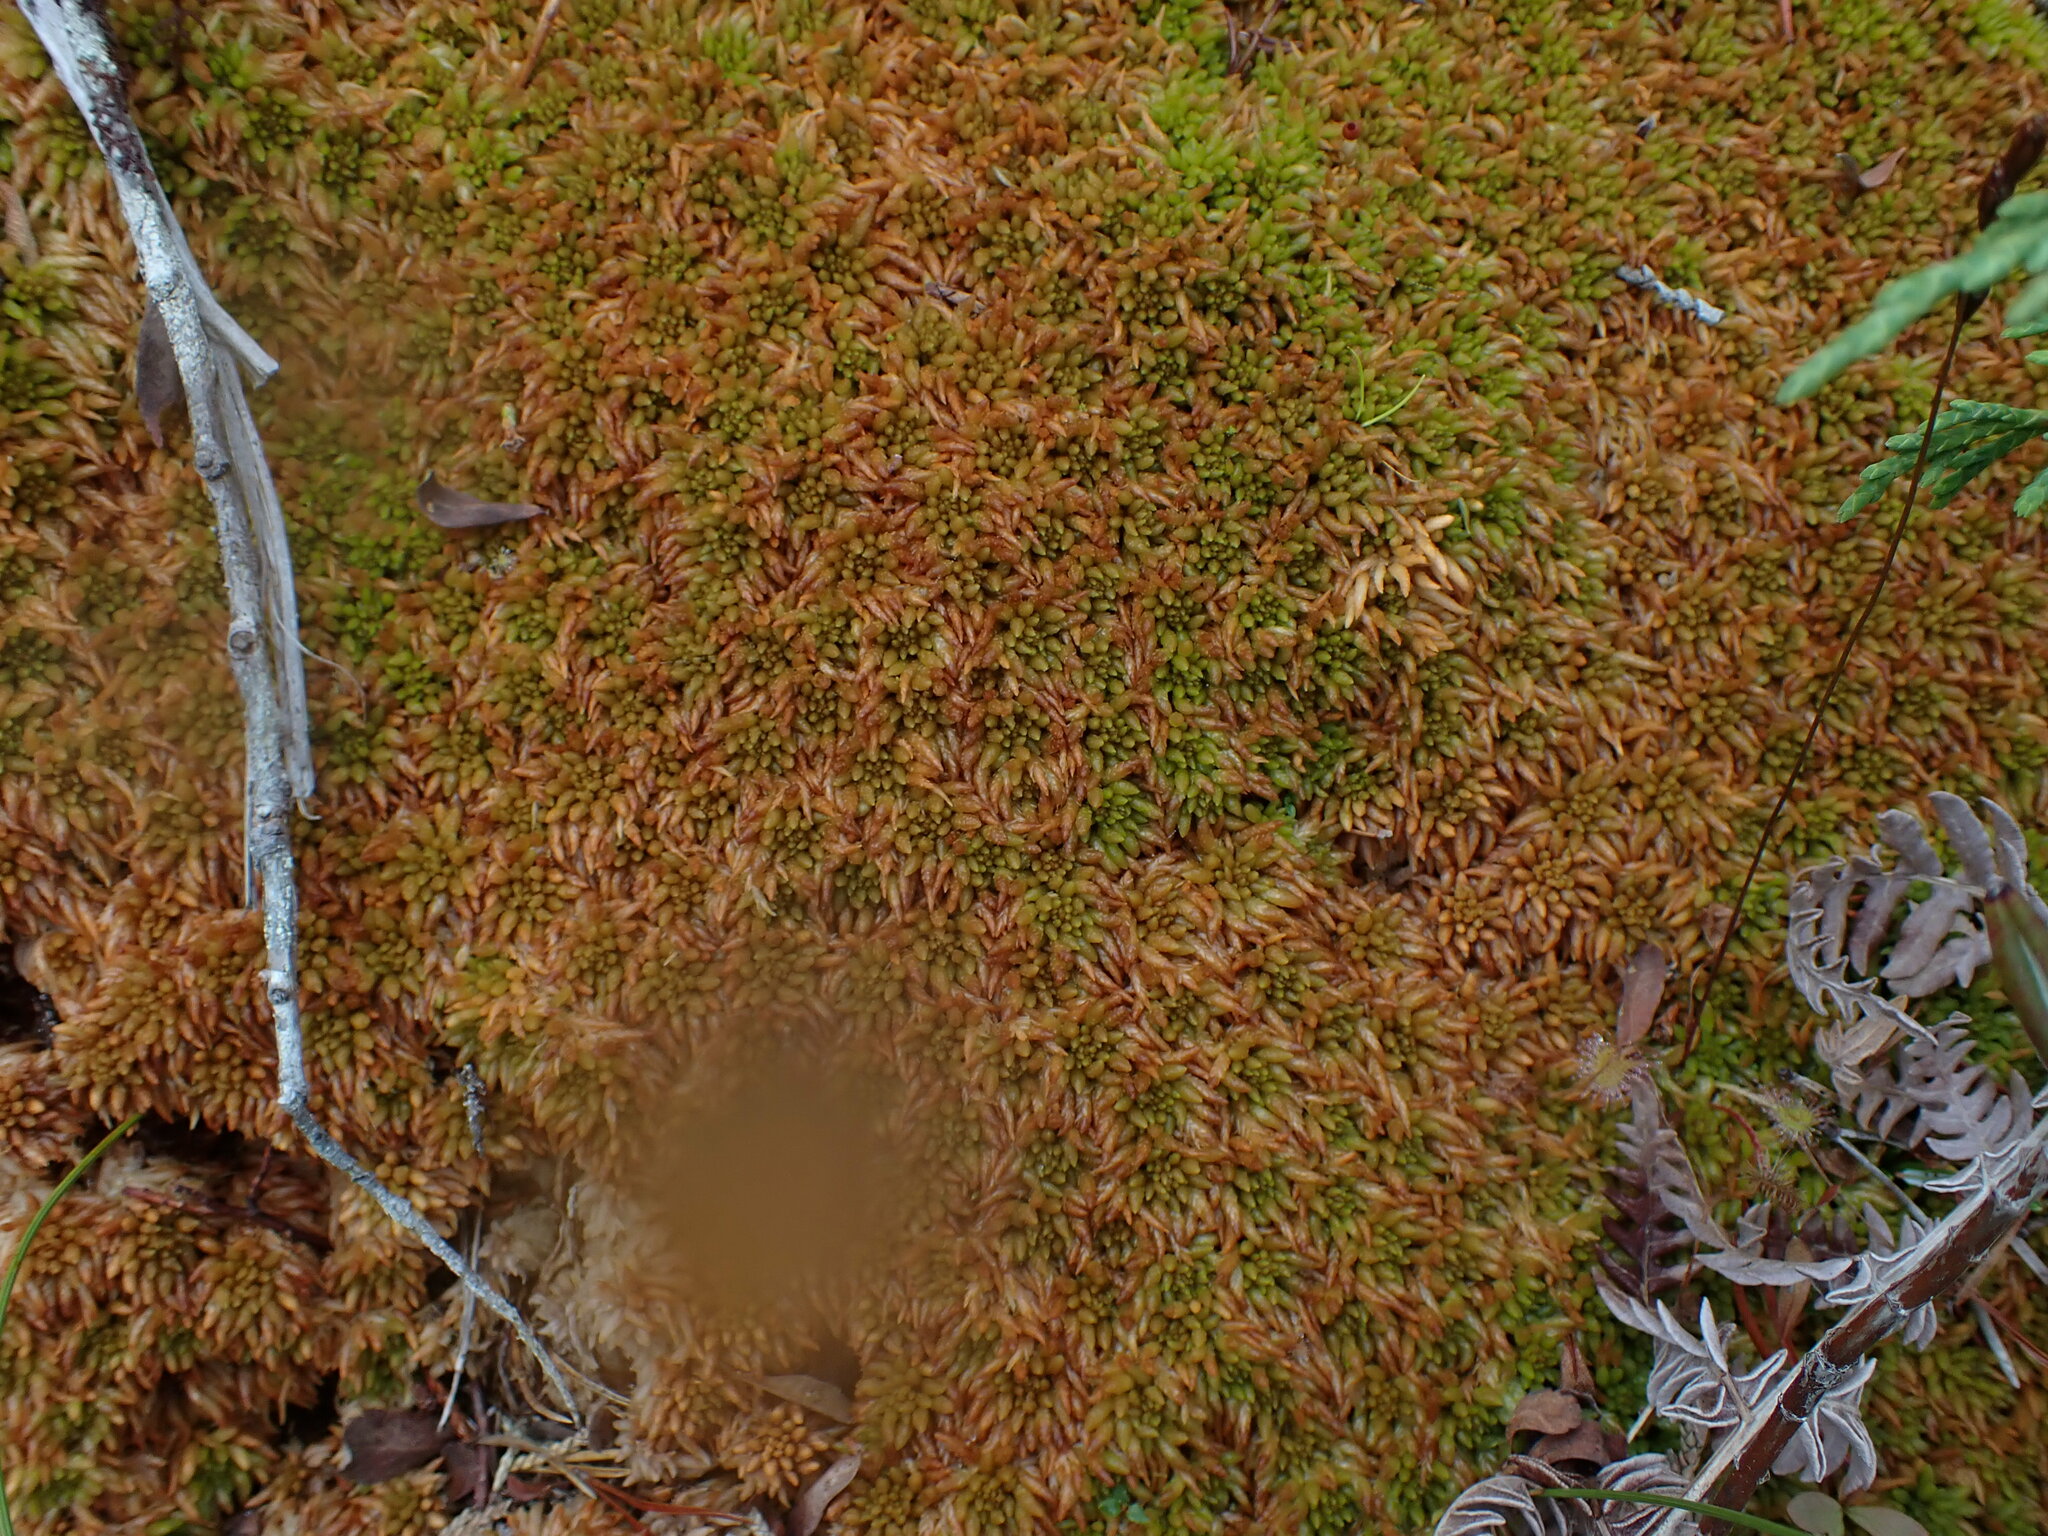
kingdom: Plantae
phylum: Bryophyta
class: Sphagnopsida
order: Sphagnales
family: Sphagnaceae
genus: Sphagnum
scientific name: Sphagnum austinii
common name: Austin's peat moss
